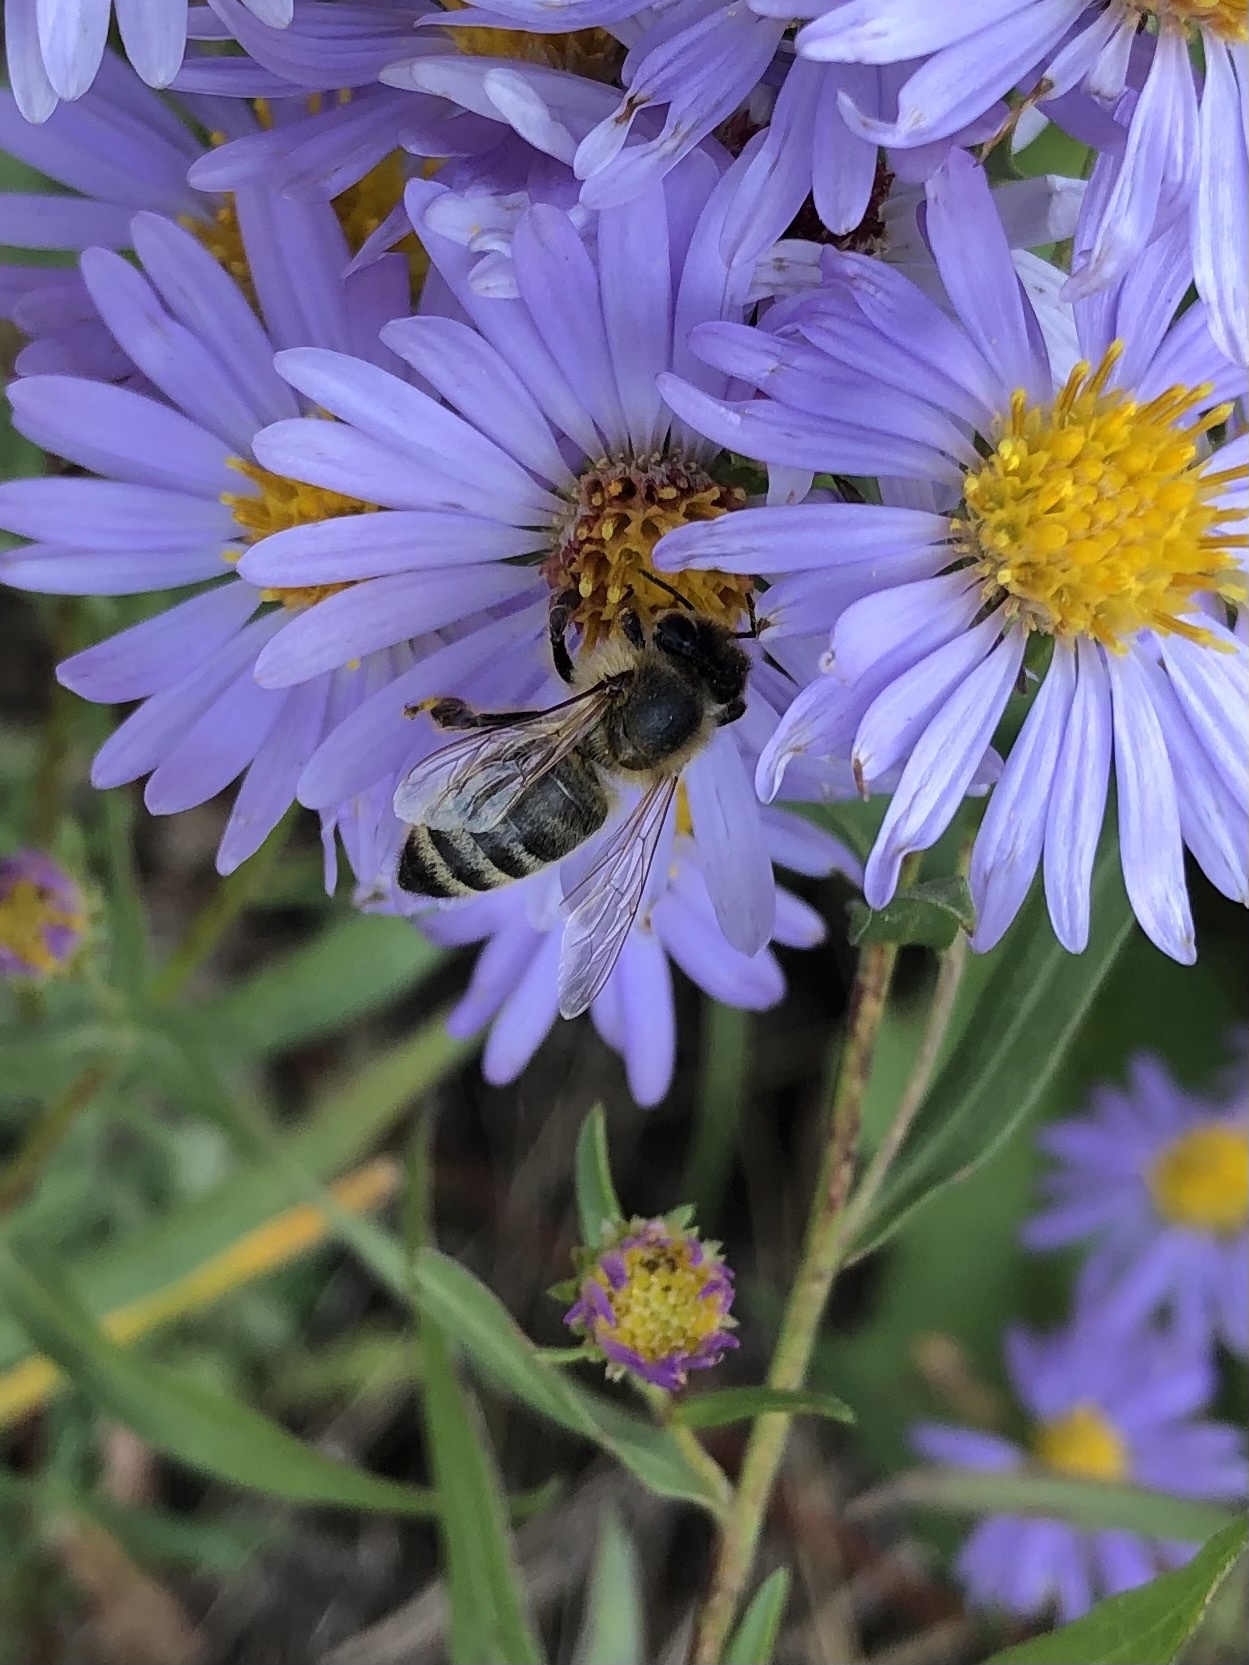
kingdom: Animalia
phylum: Arthropoda
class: Insecta
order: Hymenoptera
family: Apidae
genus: Apis
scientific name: Apis mellifera
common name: Honey bee
